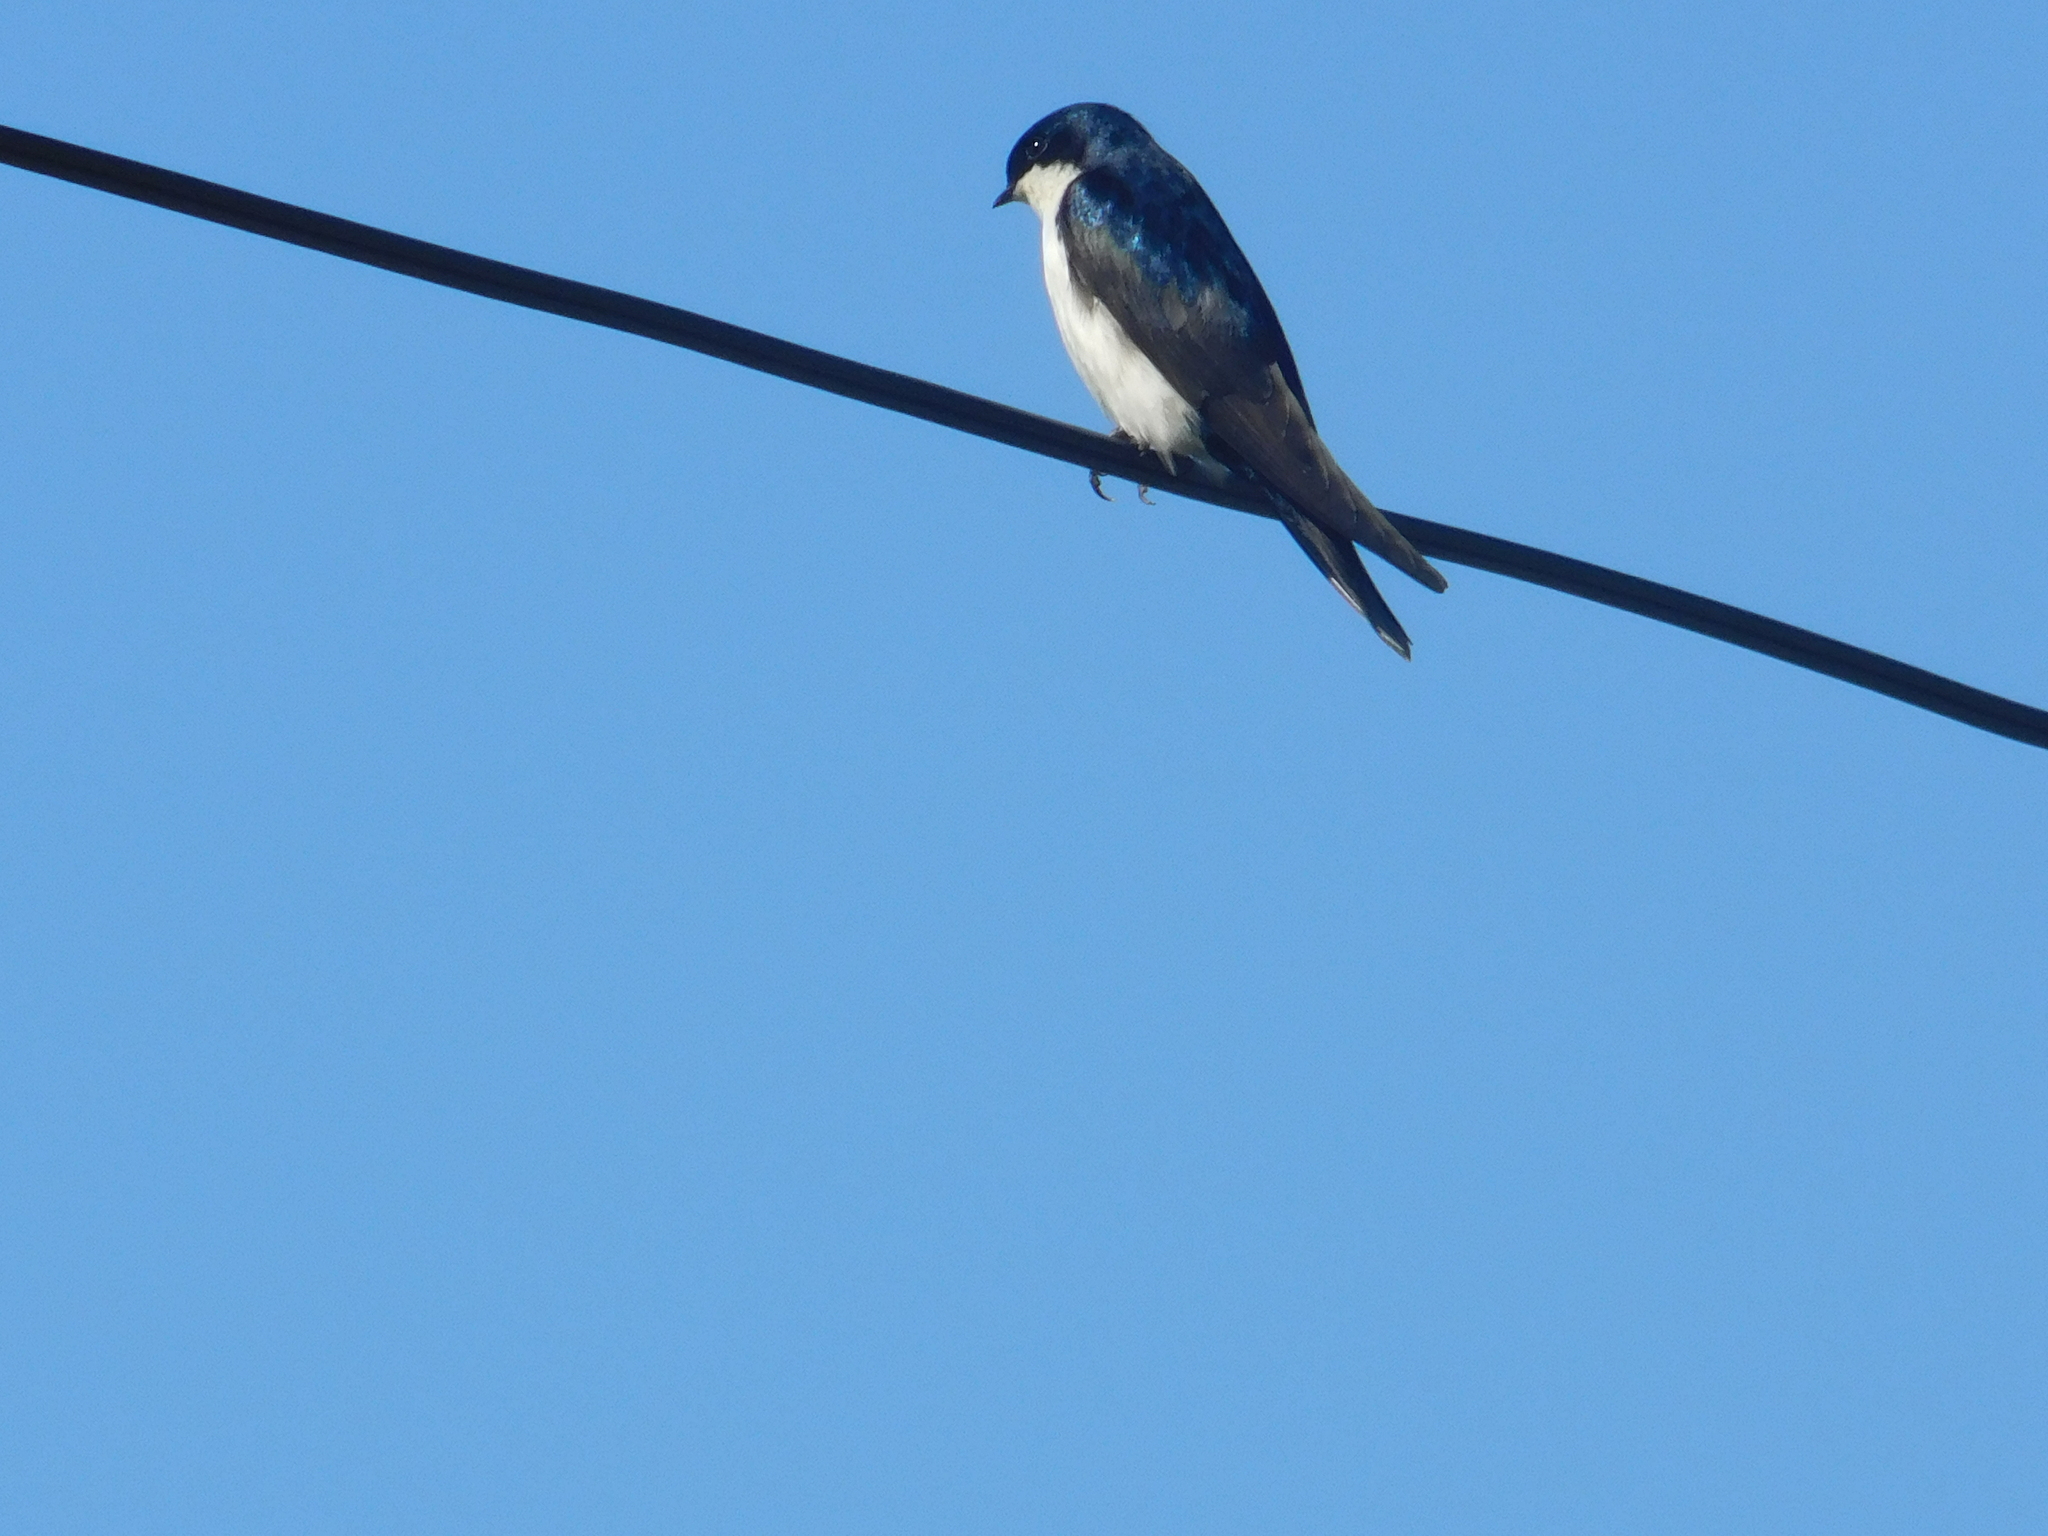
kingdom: Animalia
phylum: Chordata
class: Aves
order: Passeriformes
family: Hirundinidae
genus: Notiochelidon
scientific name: Notiochelidon cyanoleuca
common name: Blue-and-white swallow
